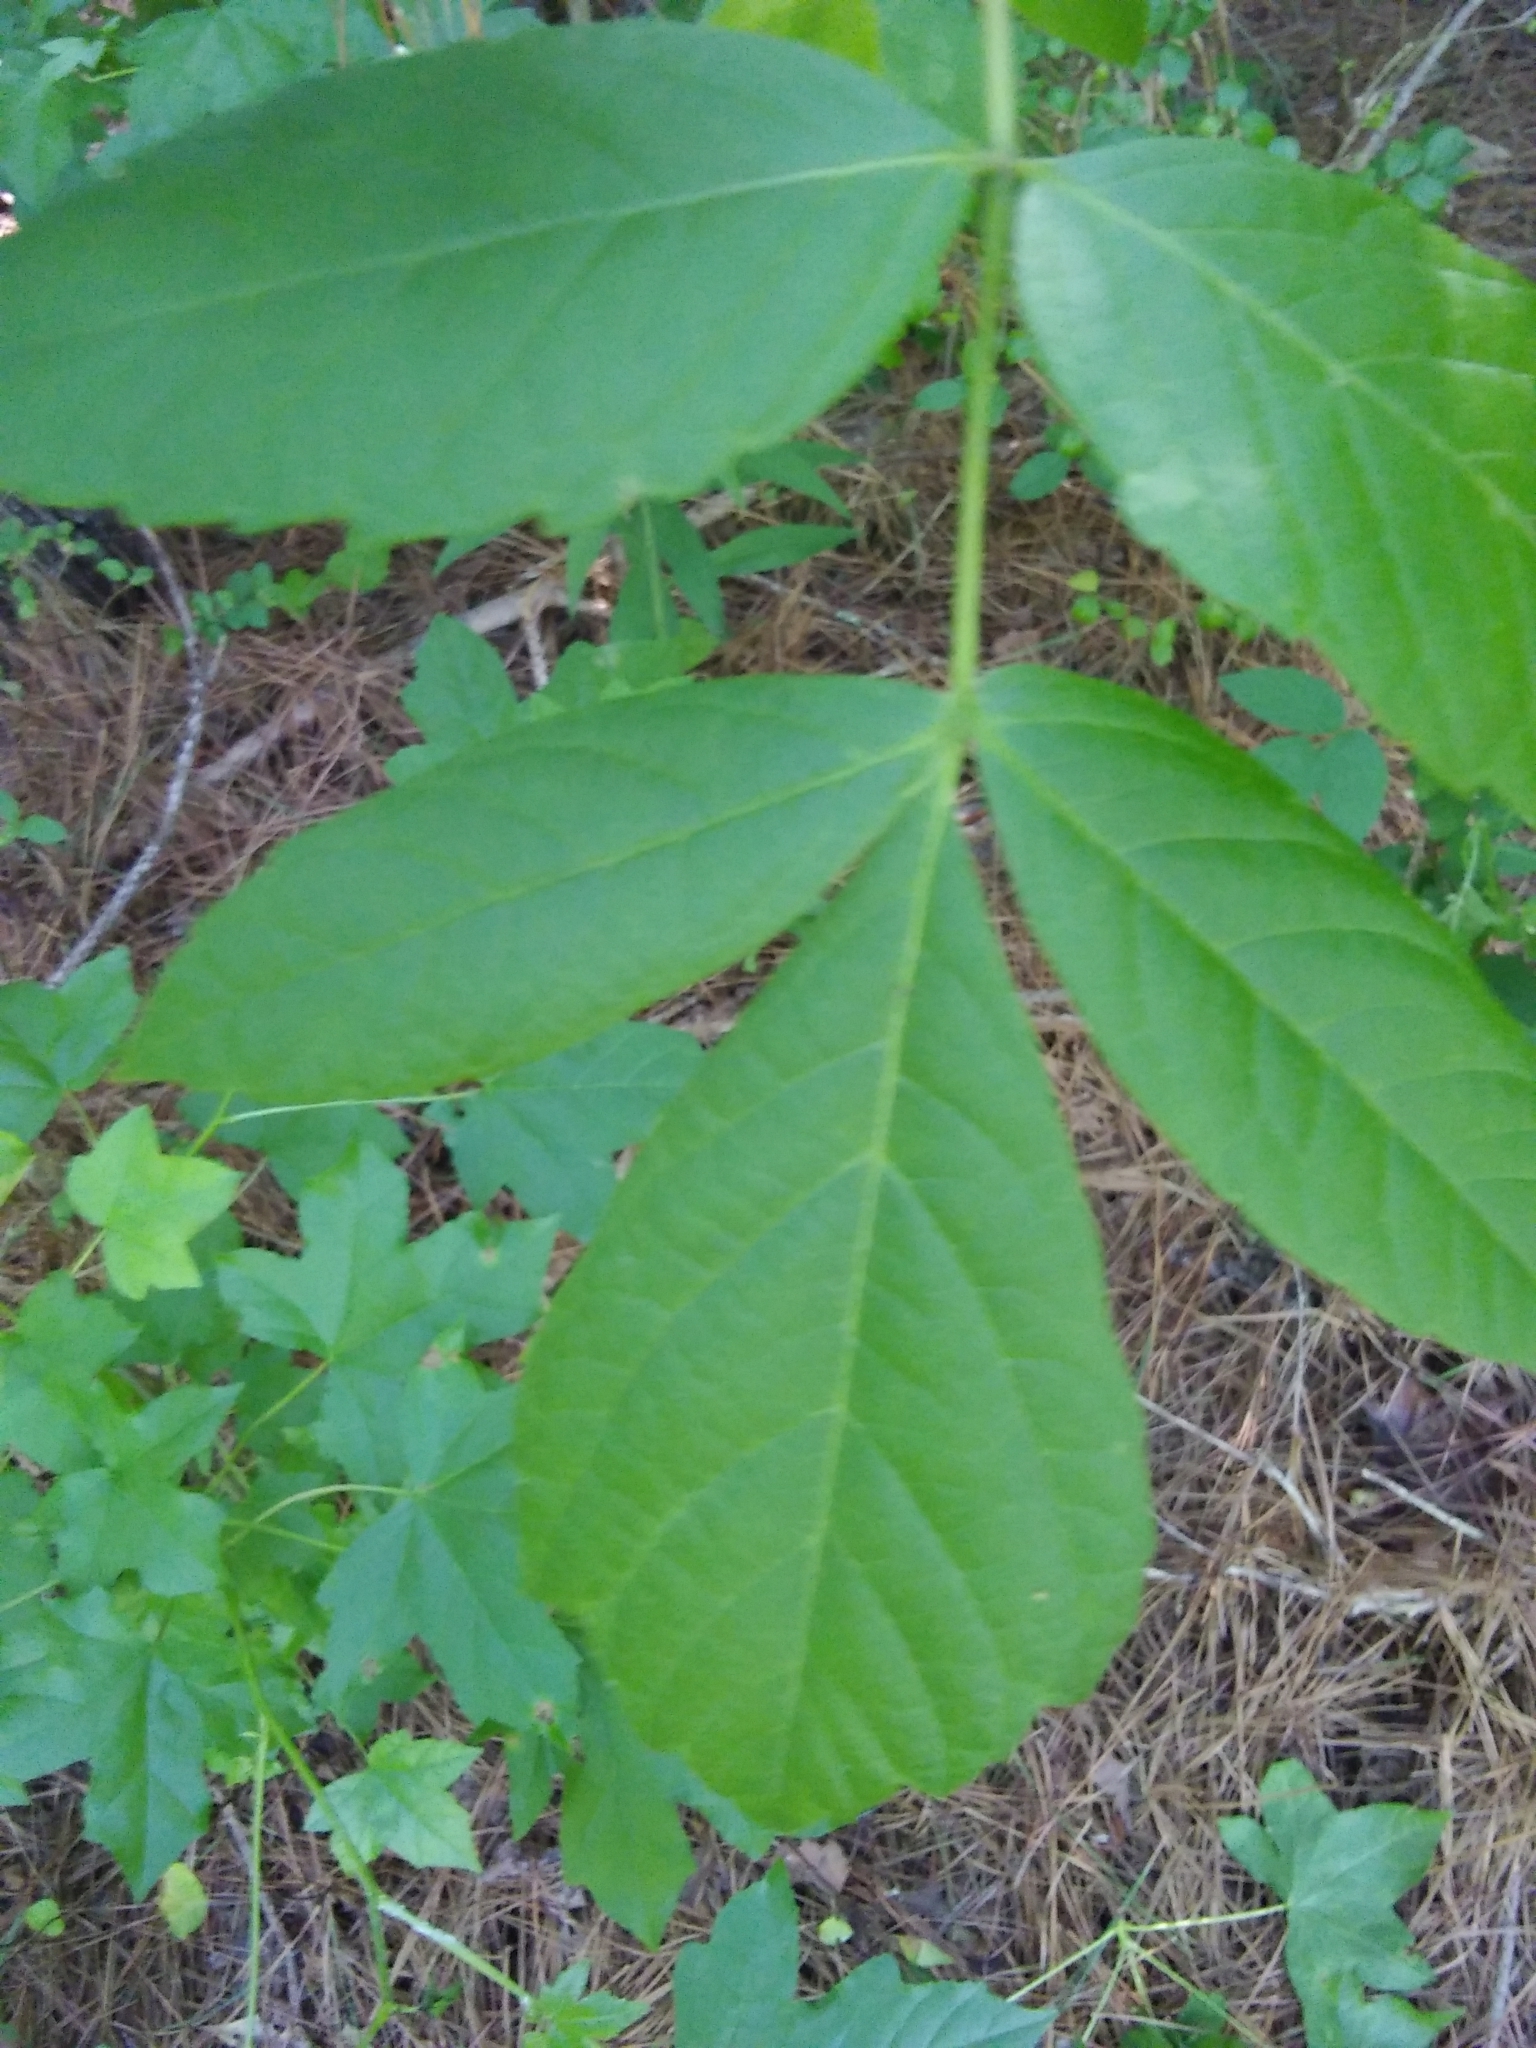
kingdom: Plantae
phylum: Tracheophyta
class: Magnoliopsida
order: Sapindales
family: Sapindaceae
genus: Acer
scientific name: Acer negundo
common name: Ashleaf maple
